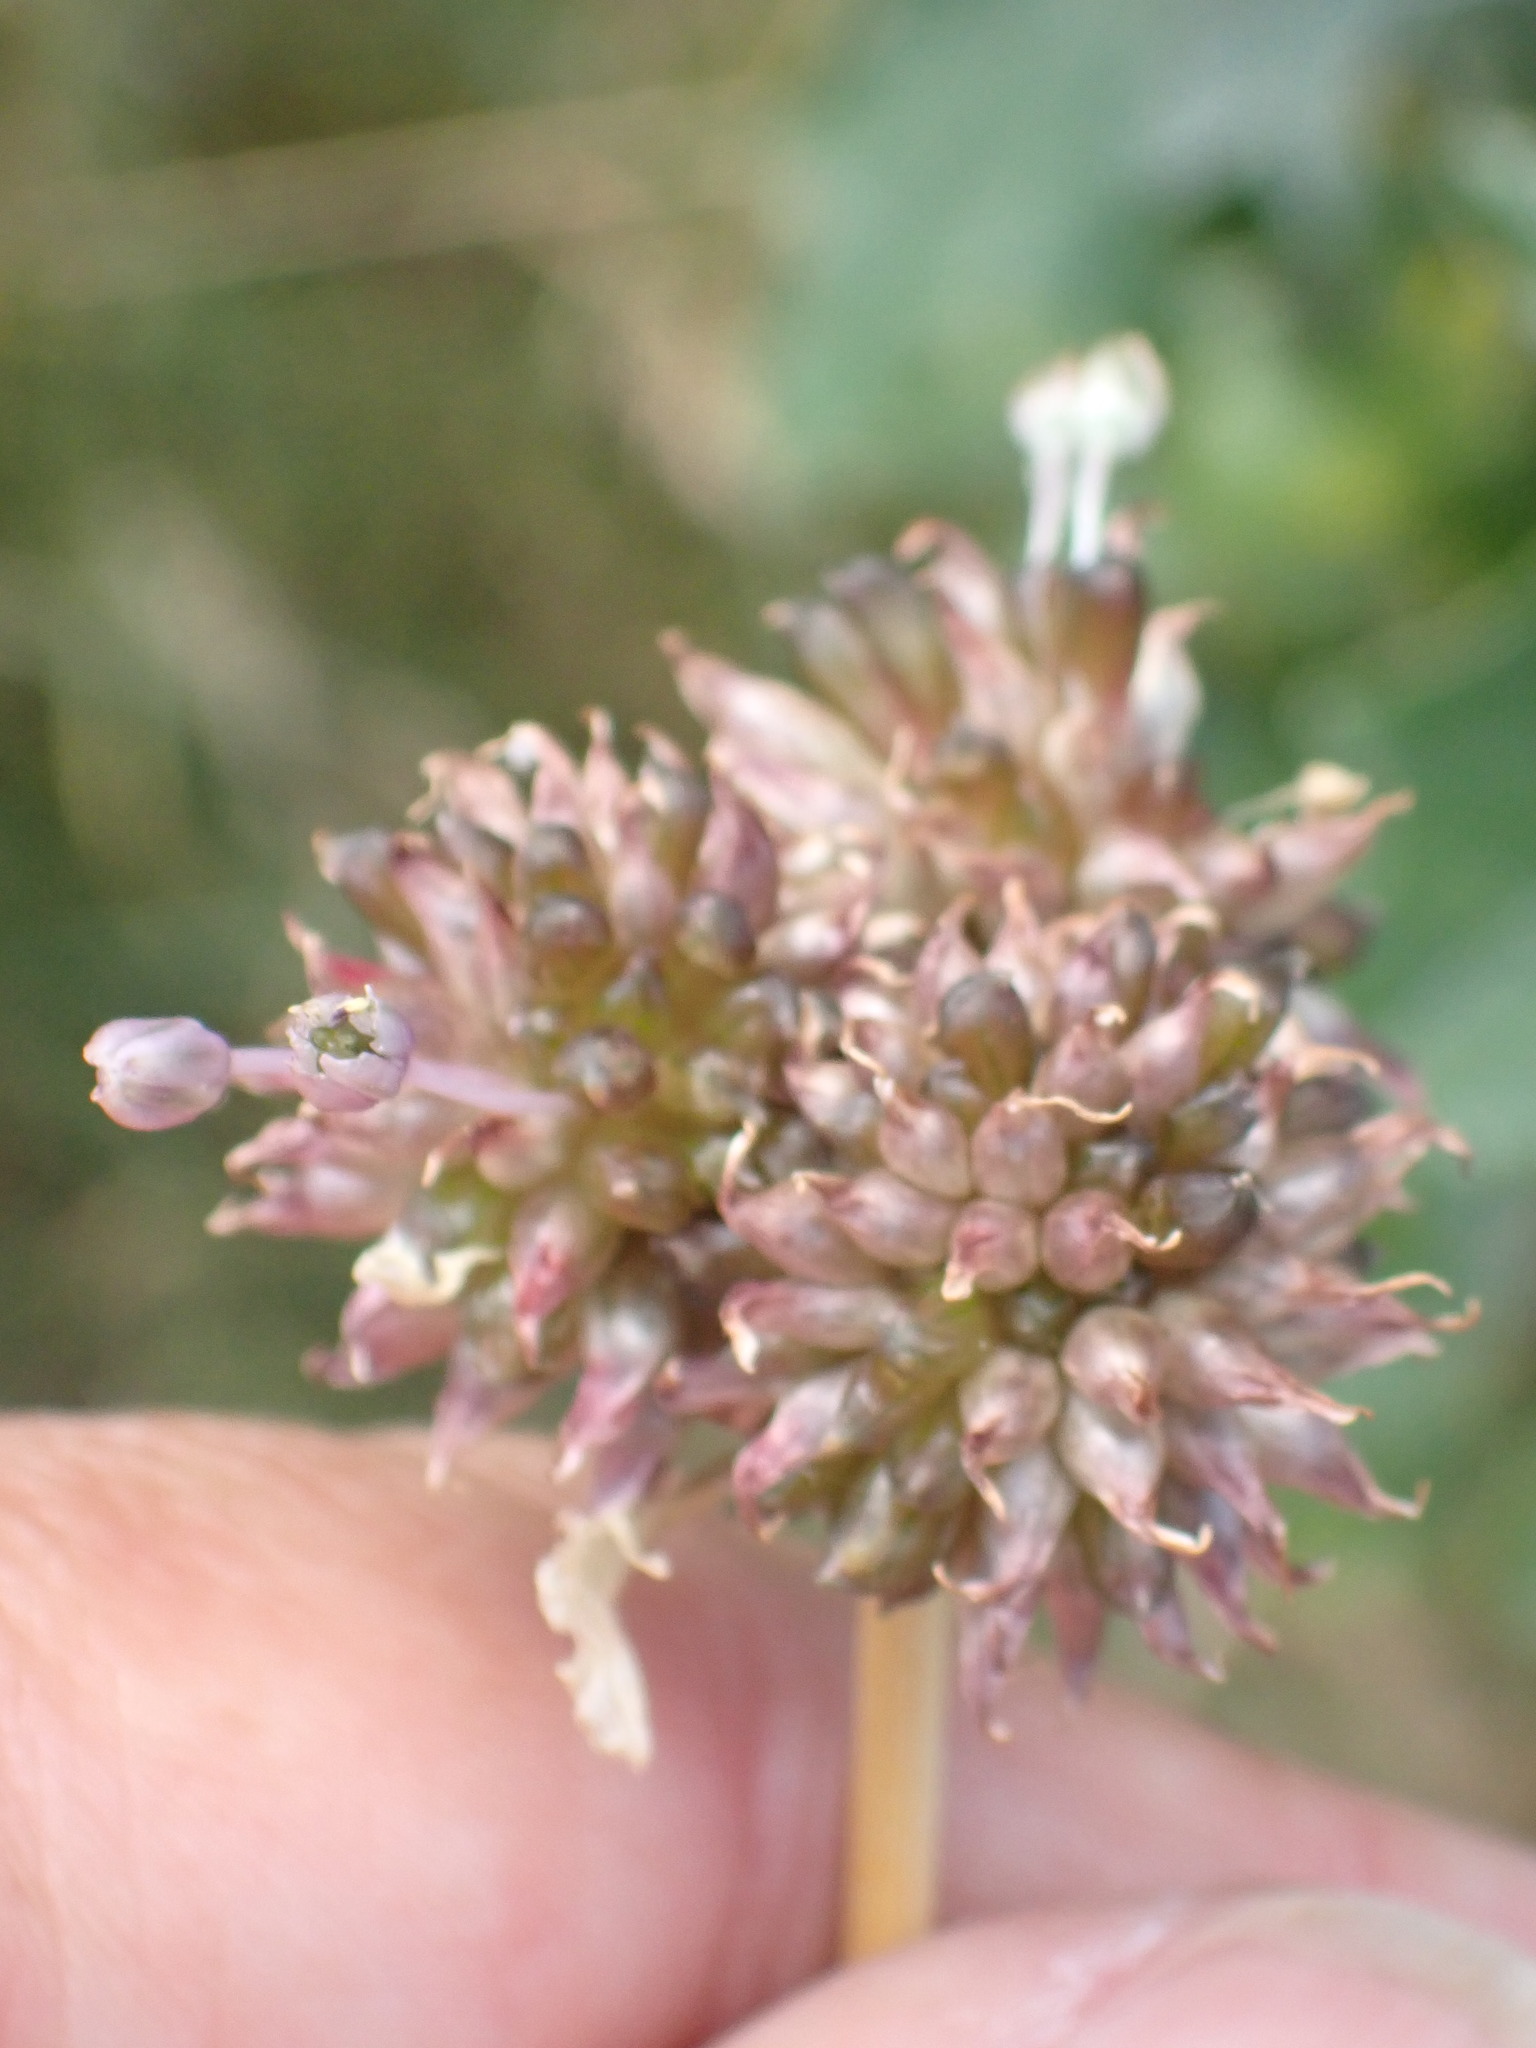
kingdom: Plantae
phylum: Tracheophyta
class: Liliopsida
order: Asparagales
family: Amaryllidaceae
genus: Allium
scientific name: Allium vineale
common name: Crow garlic
